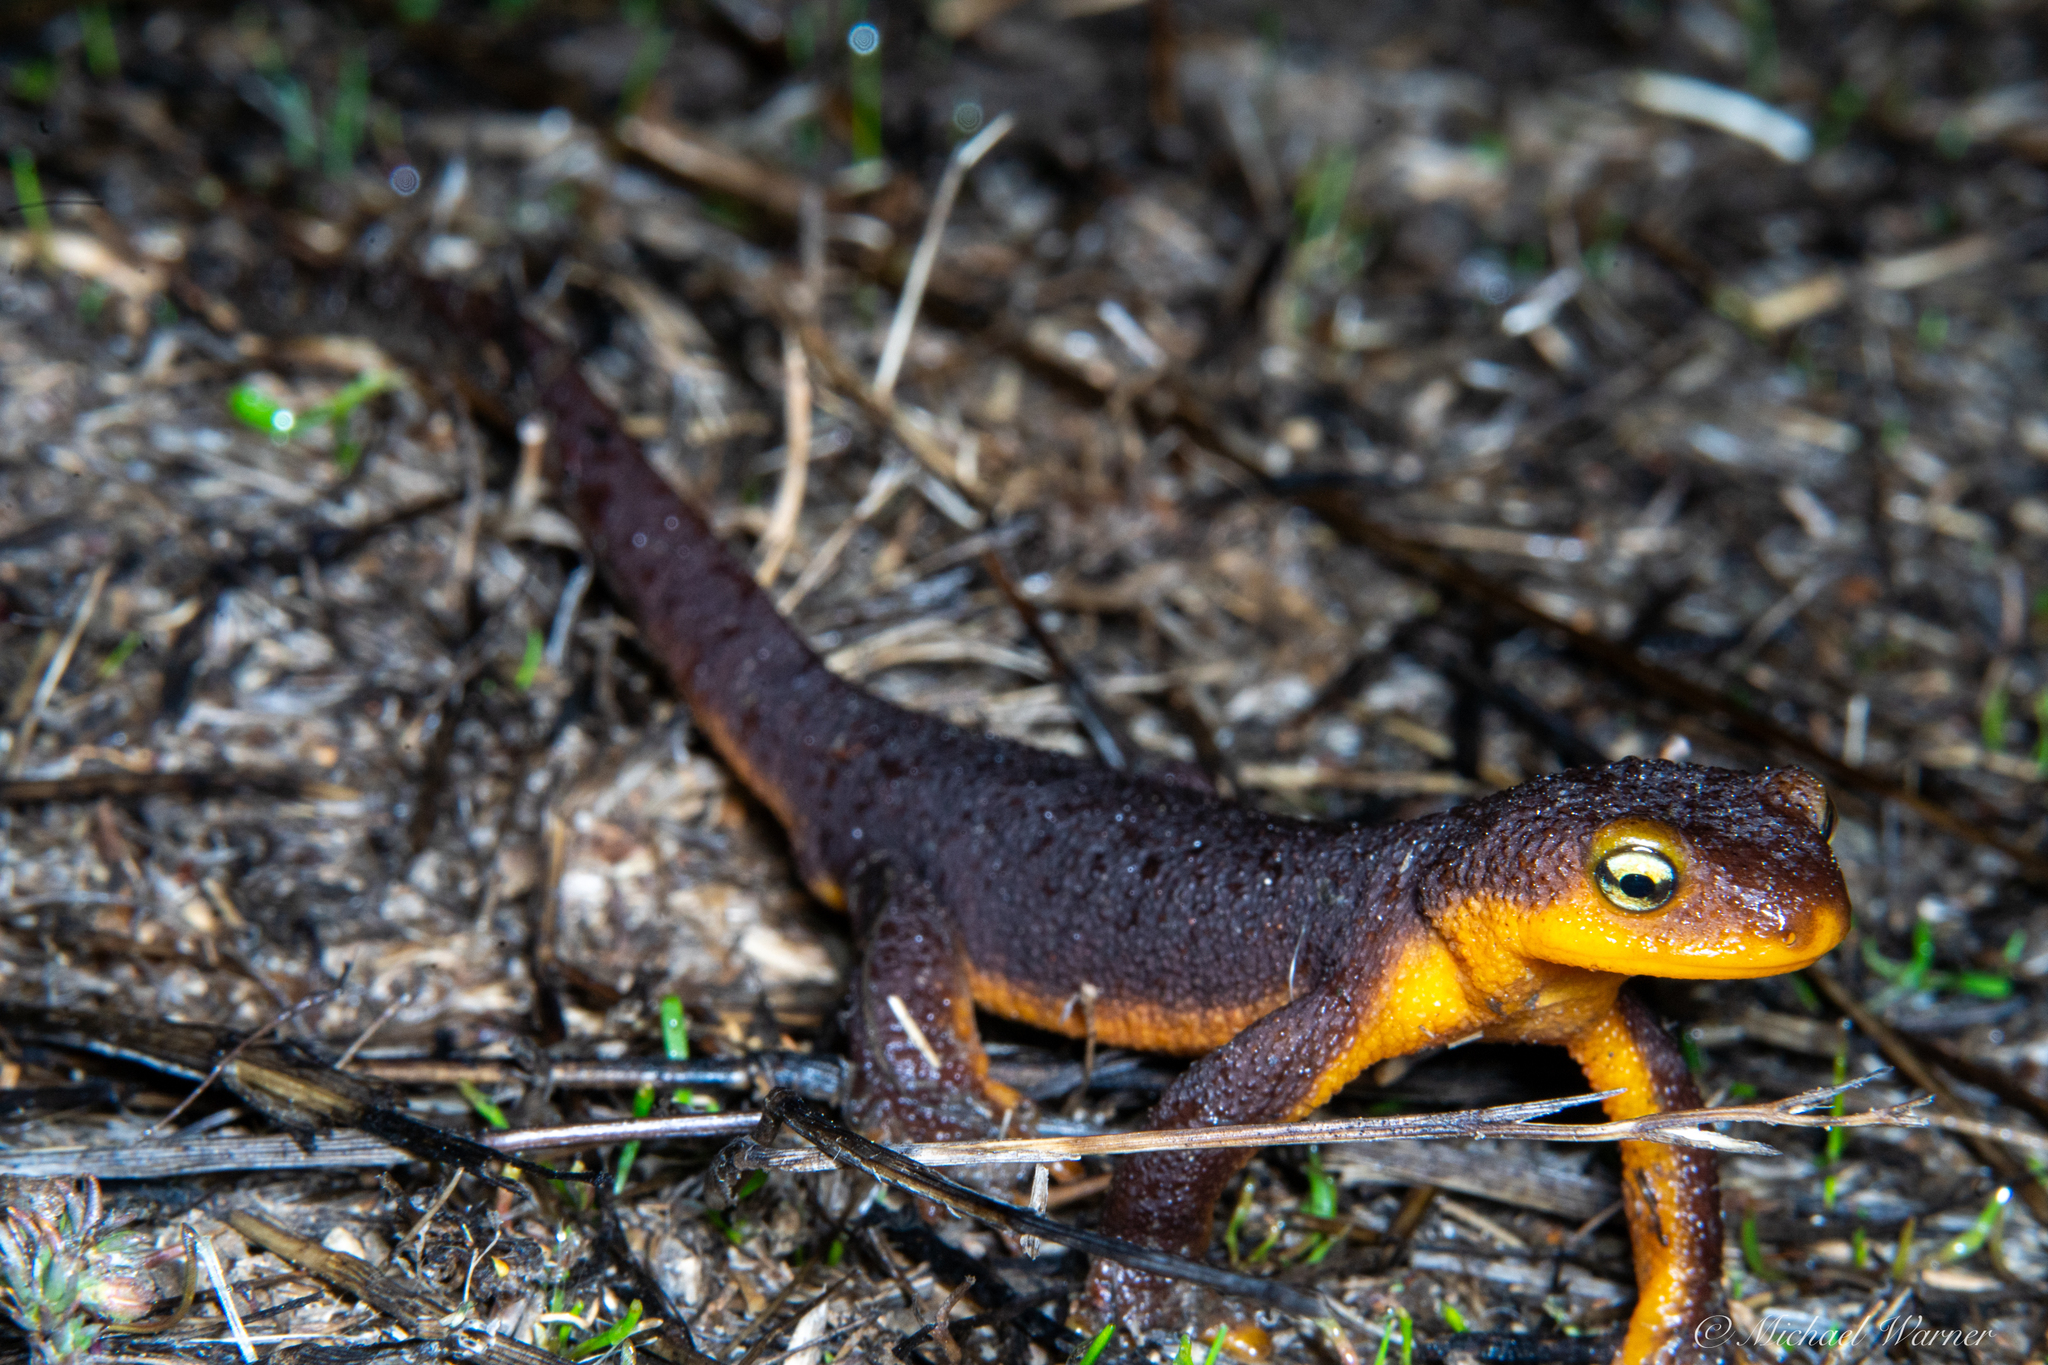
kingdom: Animalia
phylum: Chordata
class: Amphibia
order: Caudata
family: Salamandridae
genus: Taricha
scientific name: Taricha torosa
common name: California newt
